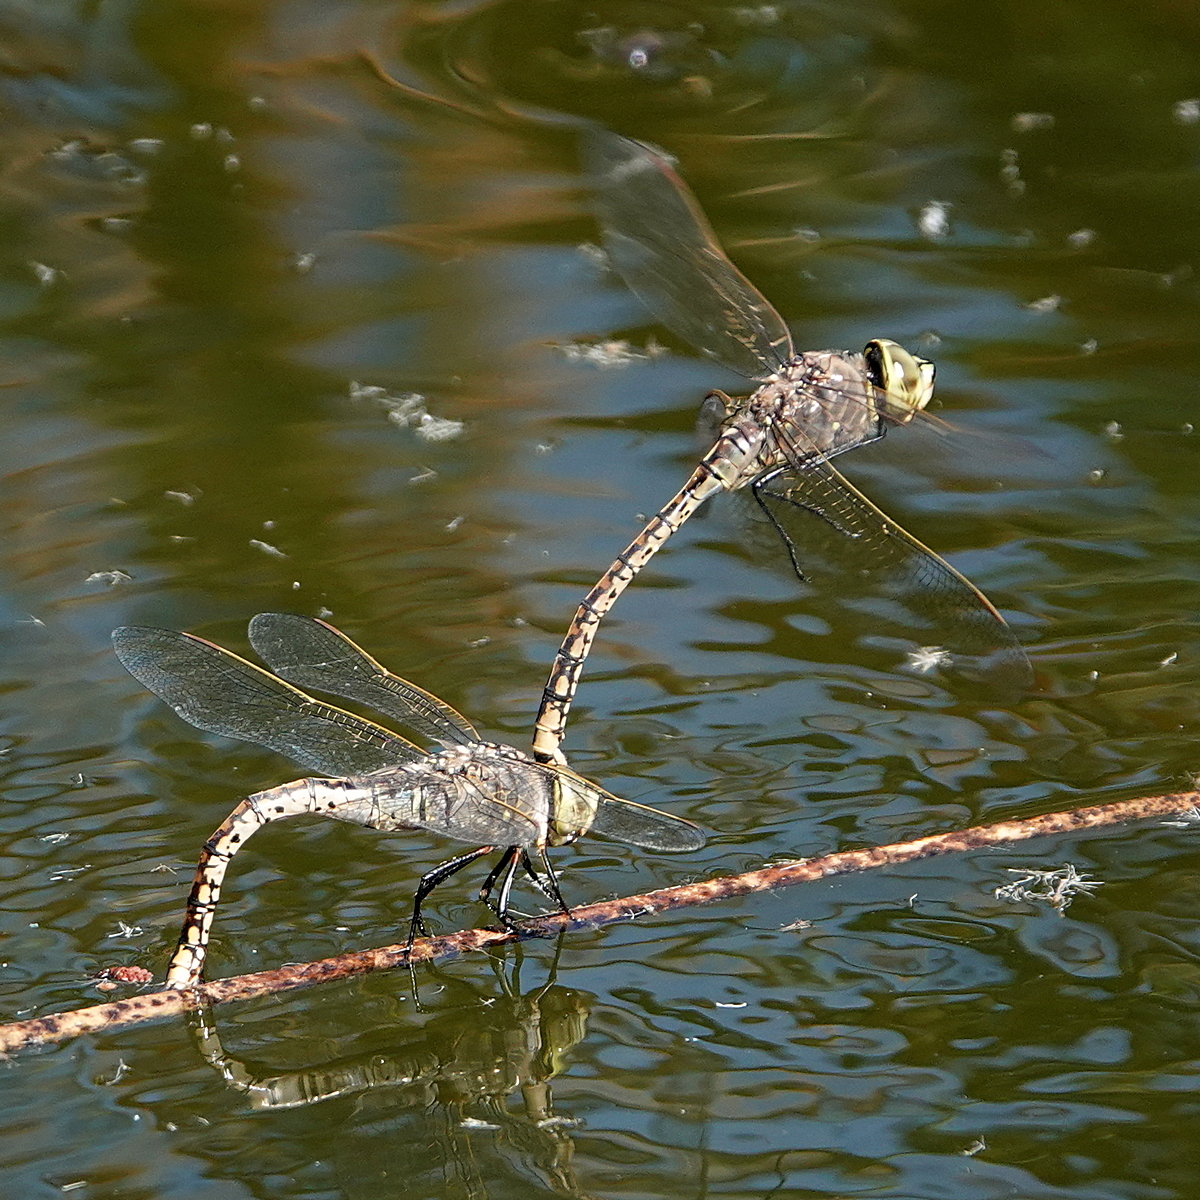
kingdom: Animalia
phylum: Arthropoda
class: Insecta
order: Odonata
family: Aeshnidae
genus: Anax
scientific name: Anax papuensis
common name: Australian emperor
